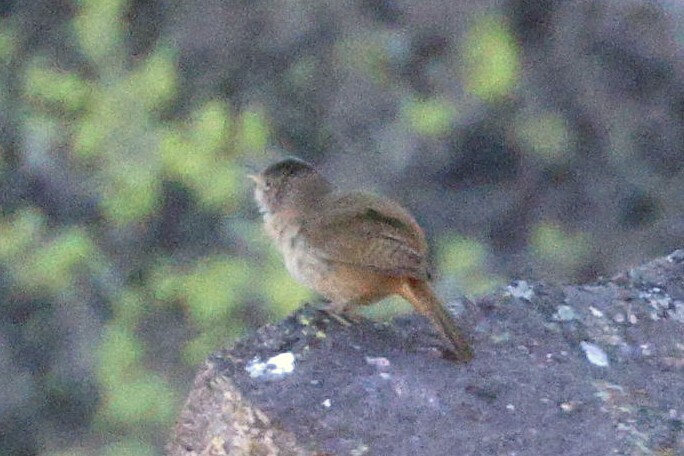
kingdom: Animalia
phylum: Chordata
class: Aves
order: Passeriformes
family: Troglodytidae
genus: Troglodytes
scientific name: Troglodytes aedon
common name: House wren
